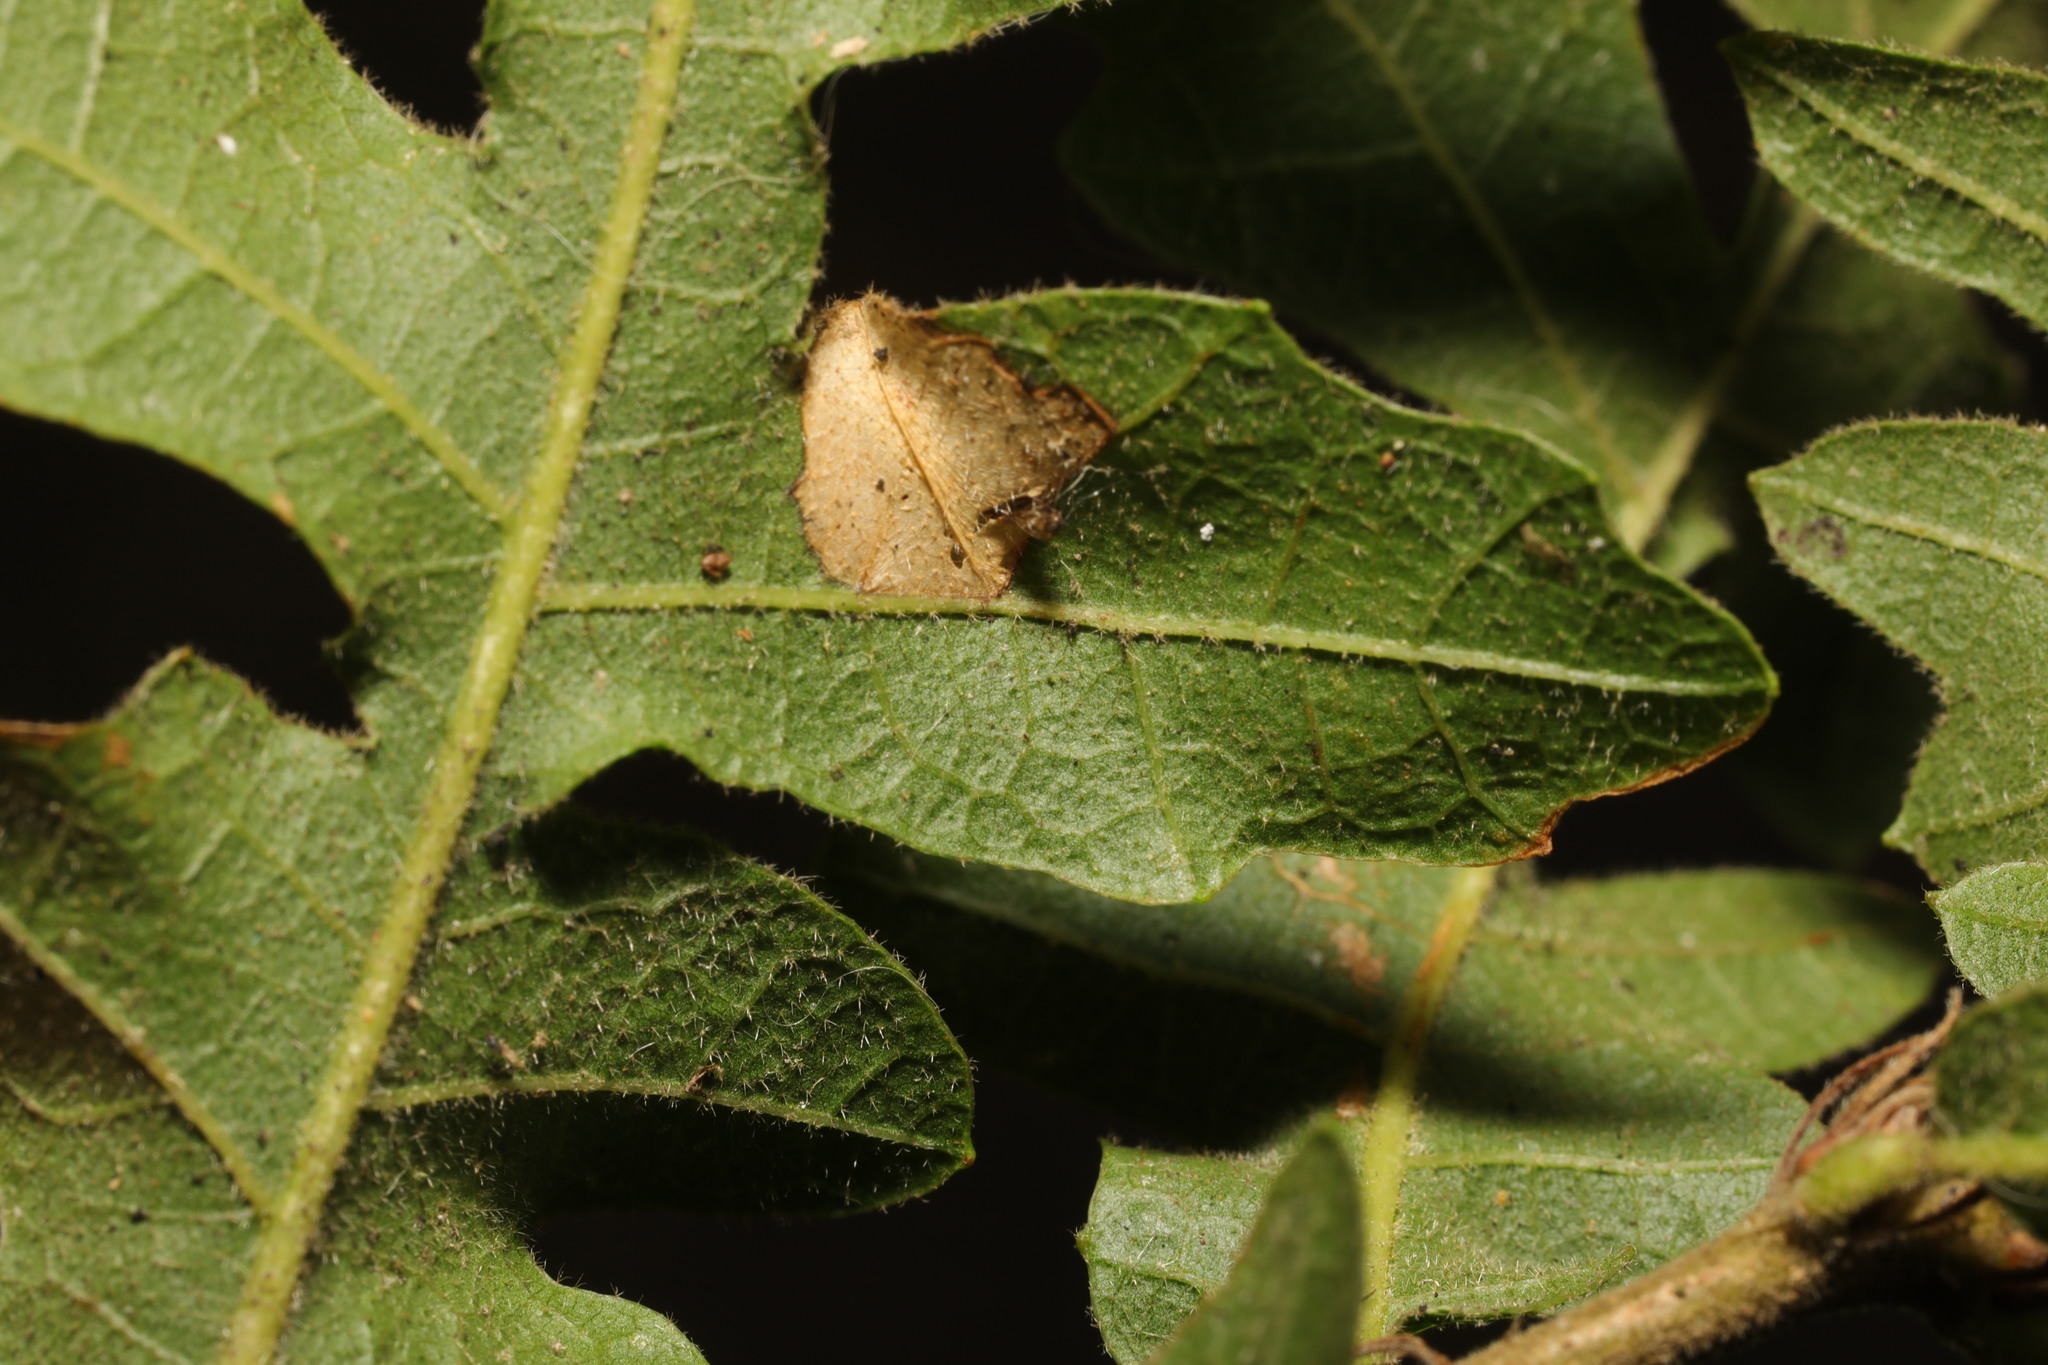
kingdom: Animalia
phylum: Arthropoda
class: Insecta
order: Lepidoptera
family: Gracillariidae
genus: Phyllonorycter
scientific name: Phyllonorycter messaniella
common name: Garden midget
